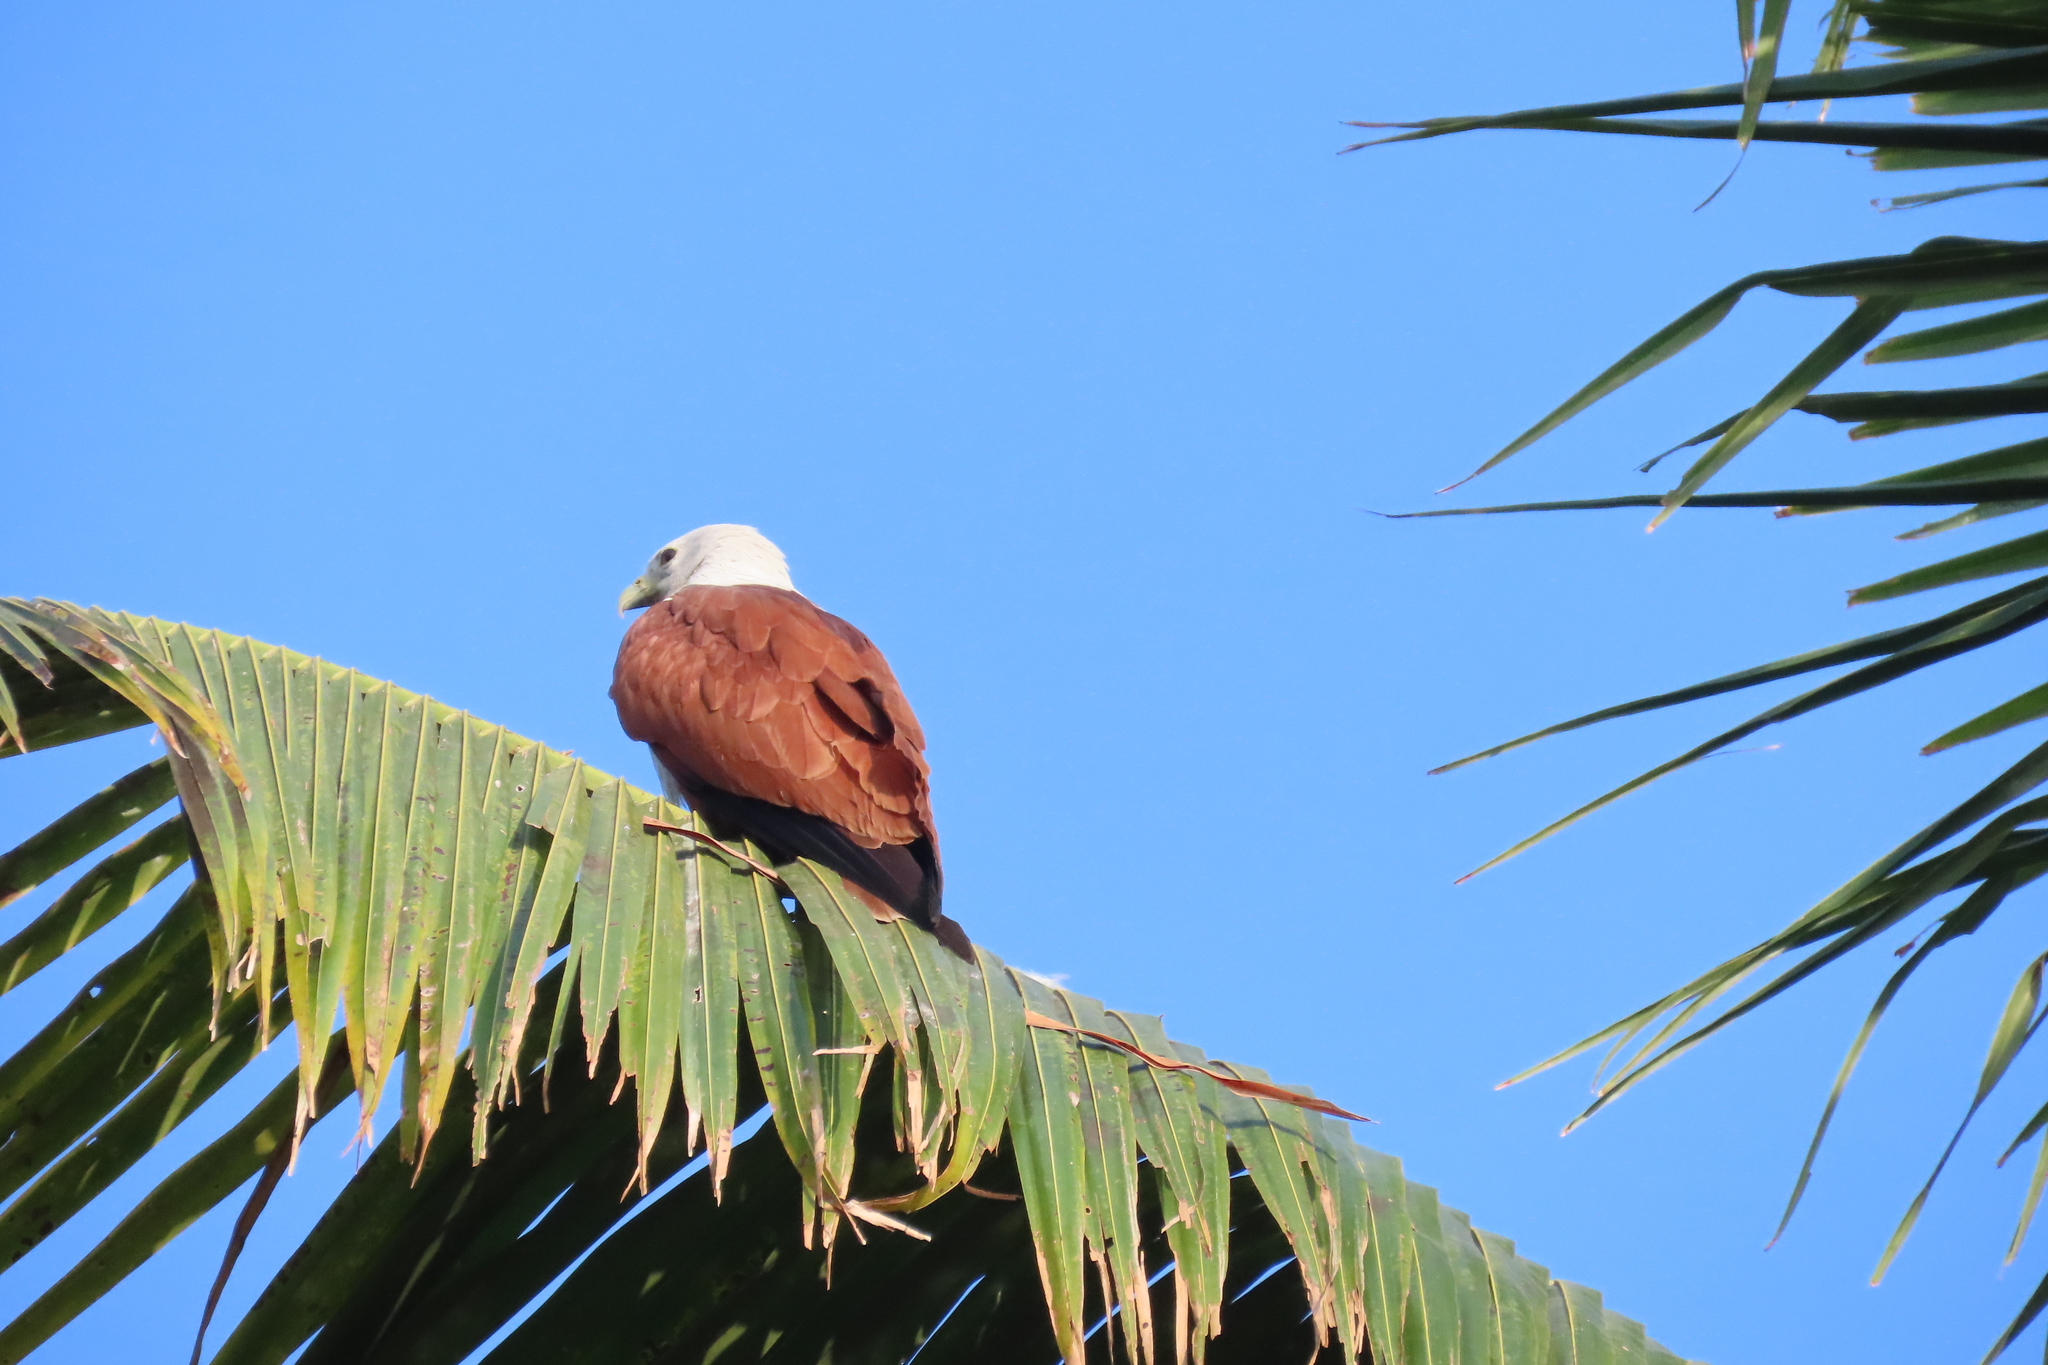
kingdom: Animalia
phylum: Chordata
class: Aves
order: Accipitriformes
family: Accipitridae
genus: Haliastur
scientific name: Haliastur indus
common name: Brahminy kite
